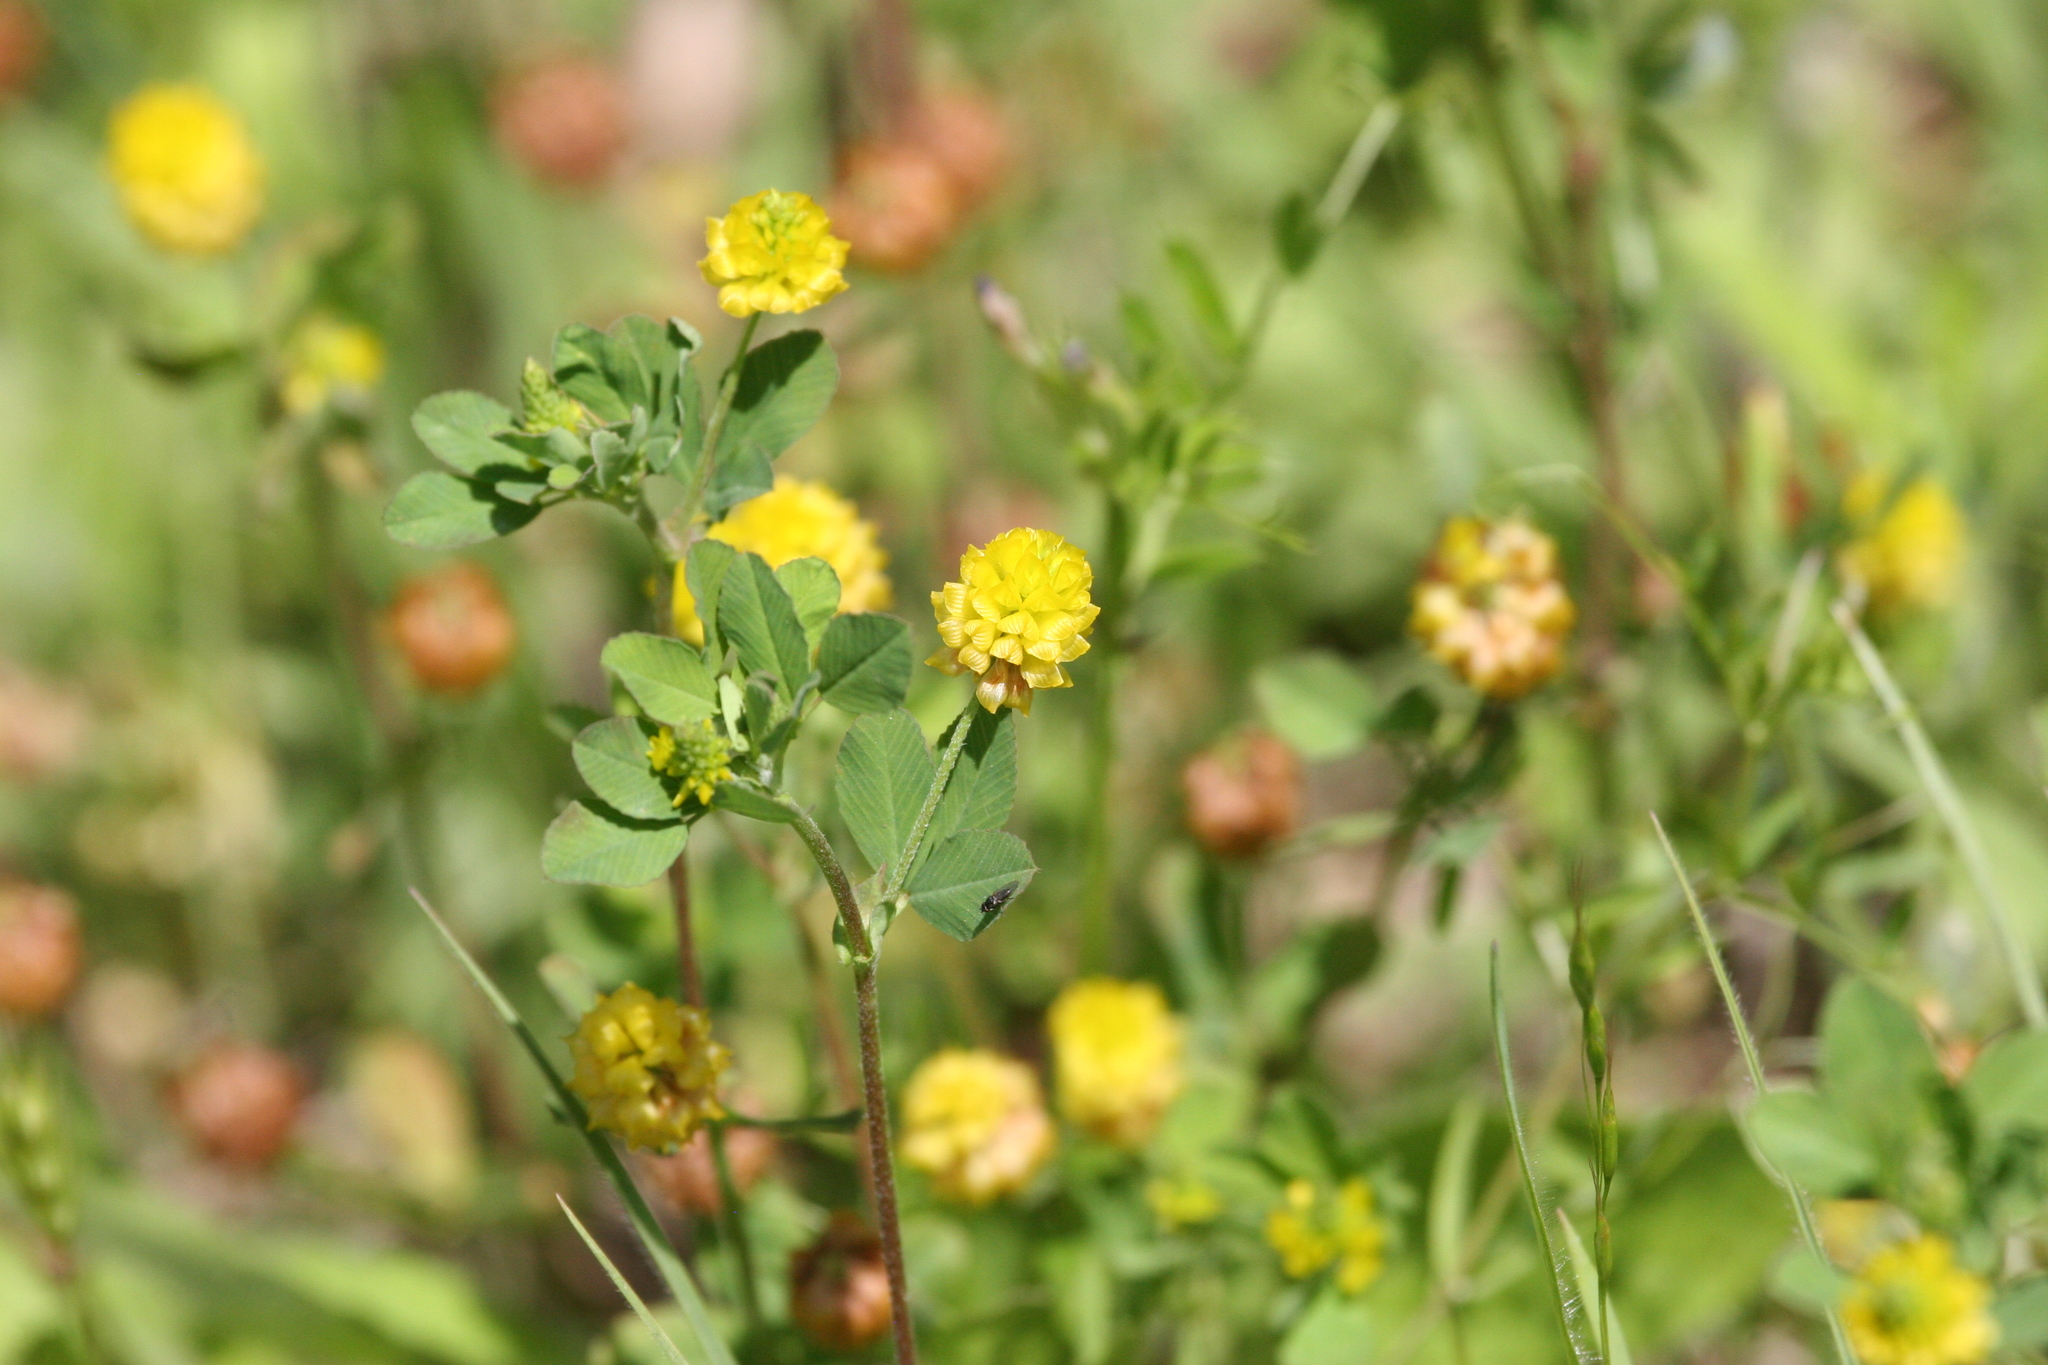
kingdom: Plantae
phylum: Tracheophyta
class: Magnoliopsida
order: Fabales
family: Fabaceae
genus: Trifolium
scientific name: Trifolium campestre
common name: Field clover
